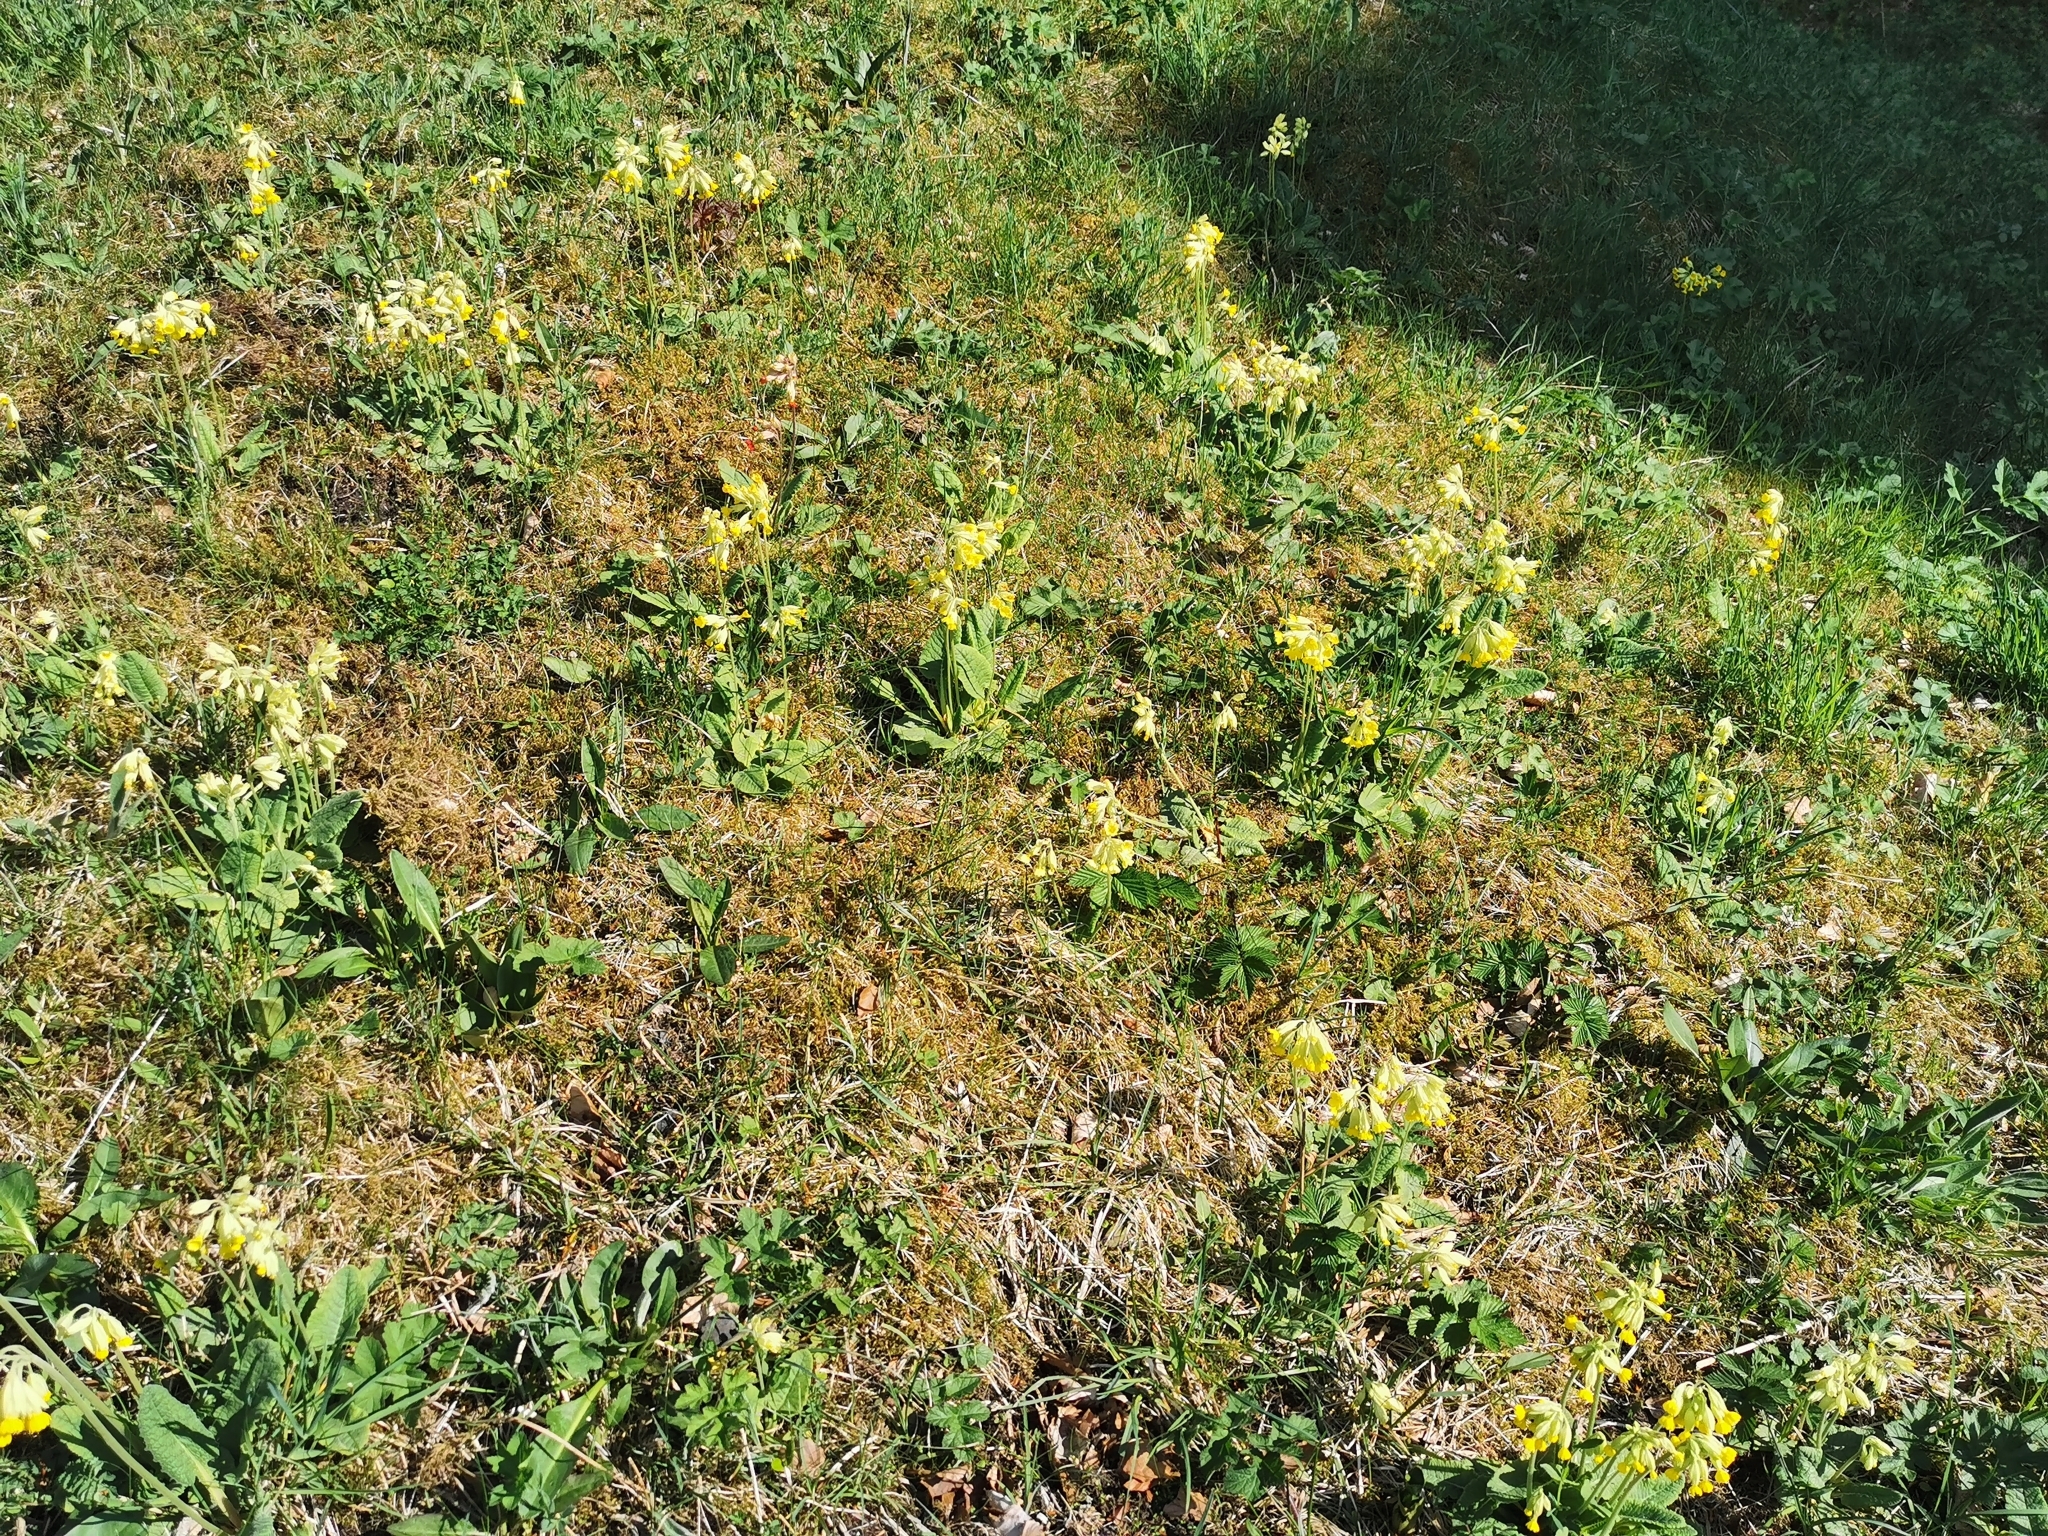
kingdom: Plantae
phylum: Tracheophyta
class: Magnoliopsida
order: Ericales
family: Primulaceae
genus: Primula
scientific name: Primula veris
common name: Cowslip
